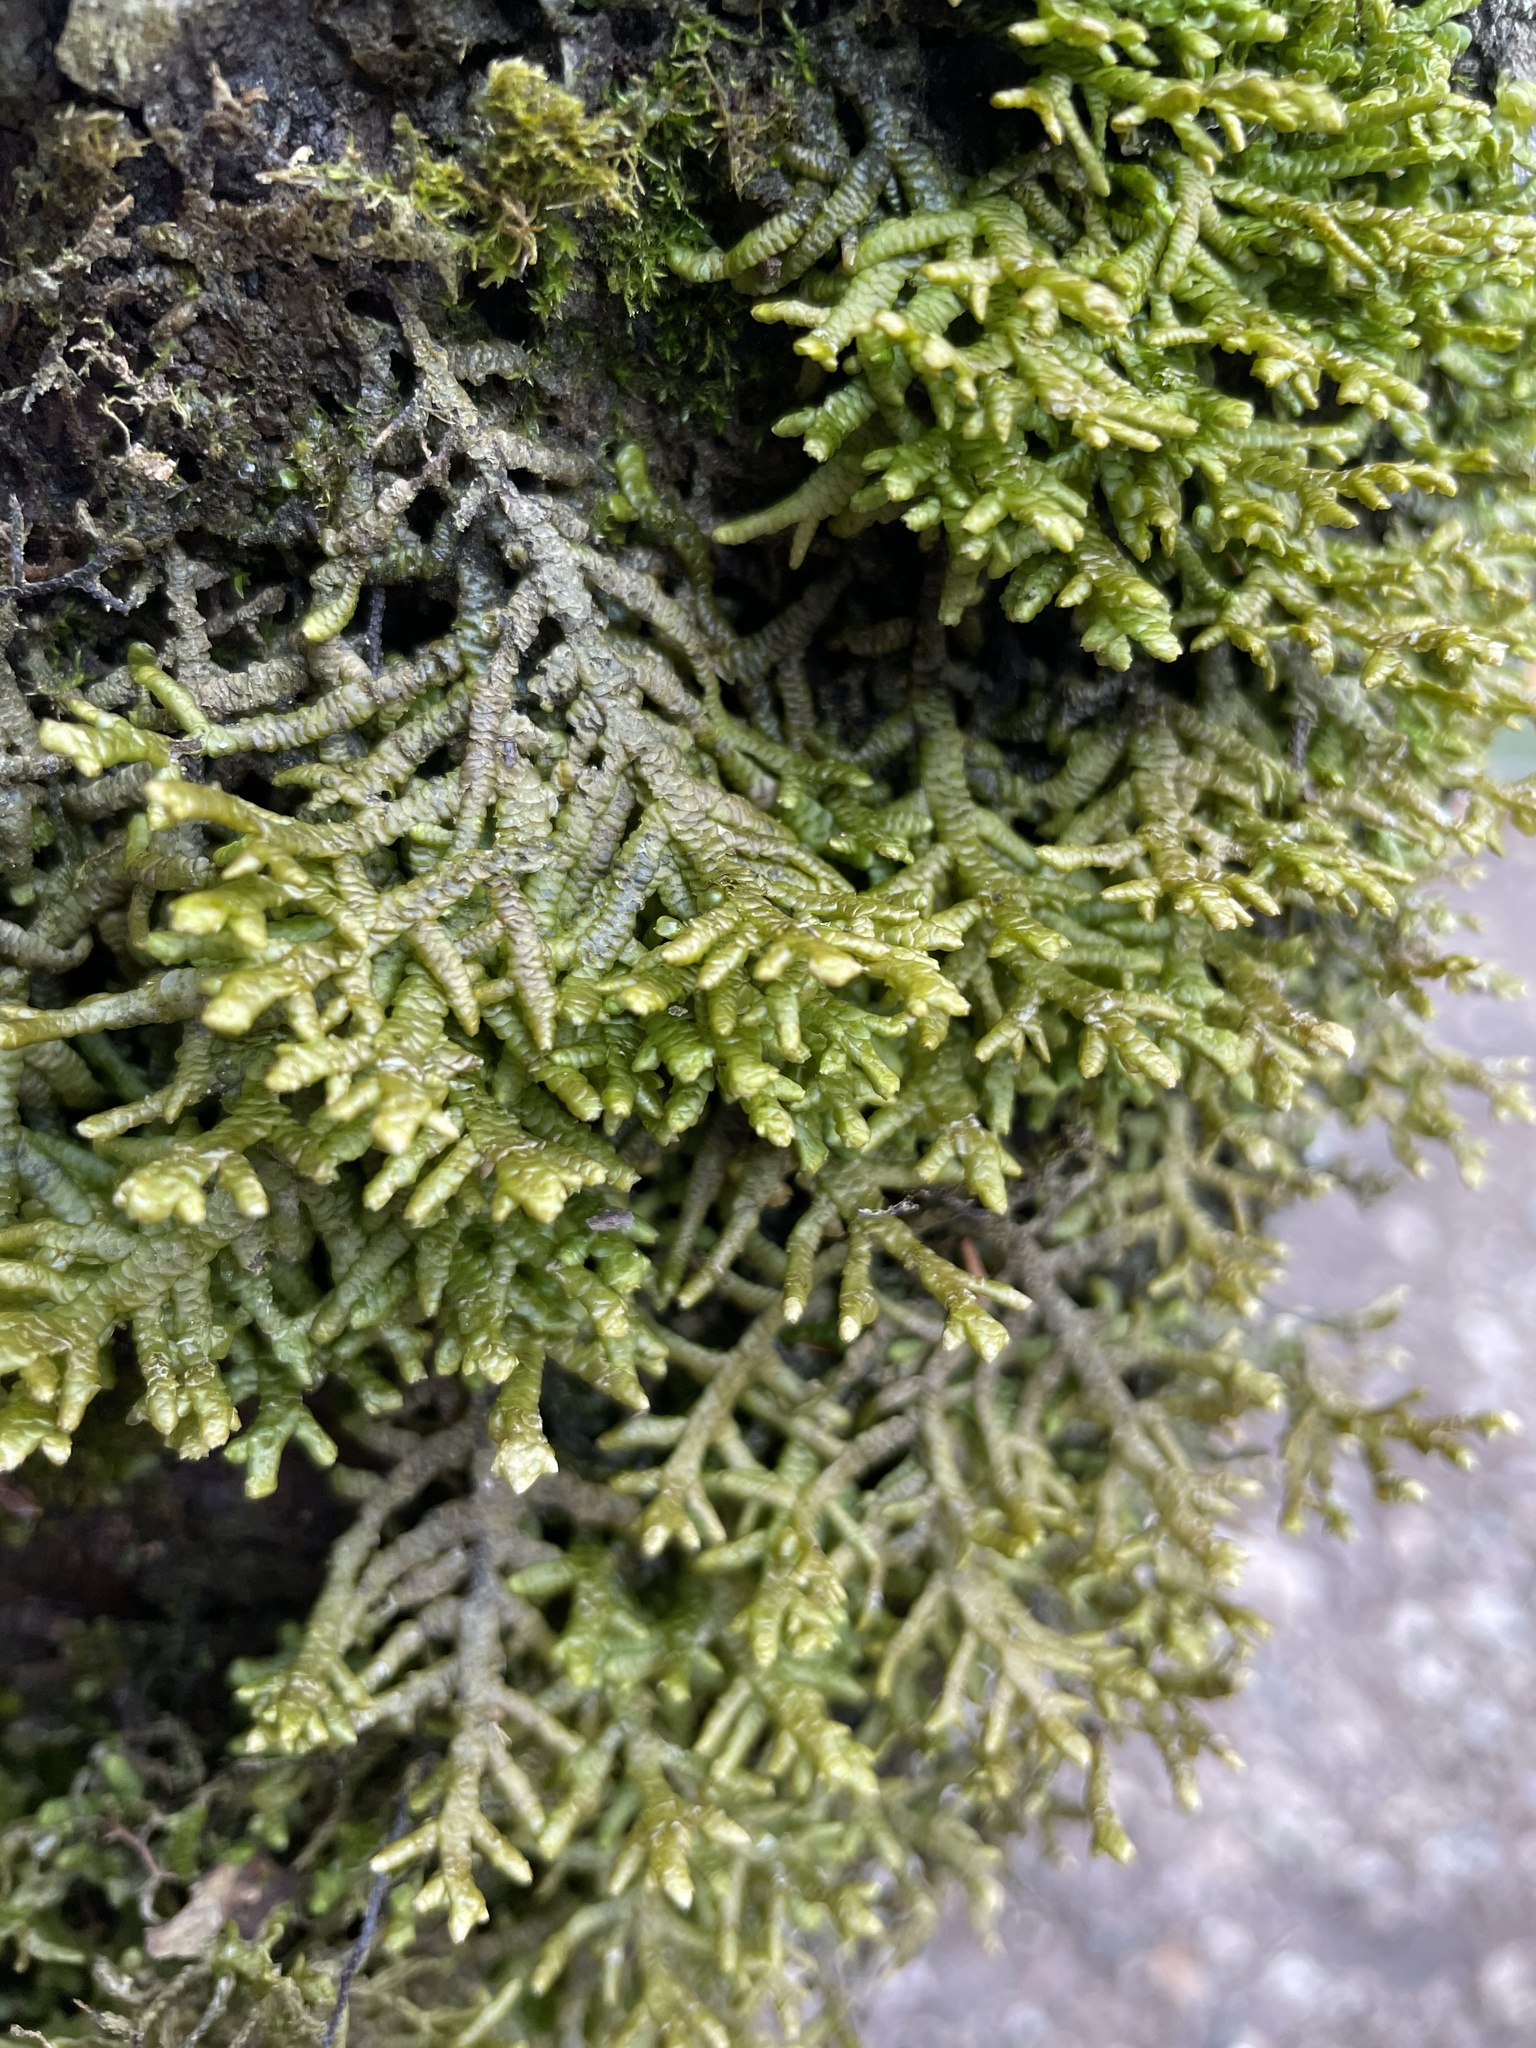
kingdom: Plantae
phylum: Marchantiophyta
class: Jungermanniopsida
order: Porellales
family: Porellaceae
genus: Porella
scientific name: Porella platyphylla
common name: Wall scalewort
